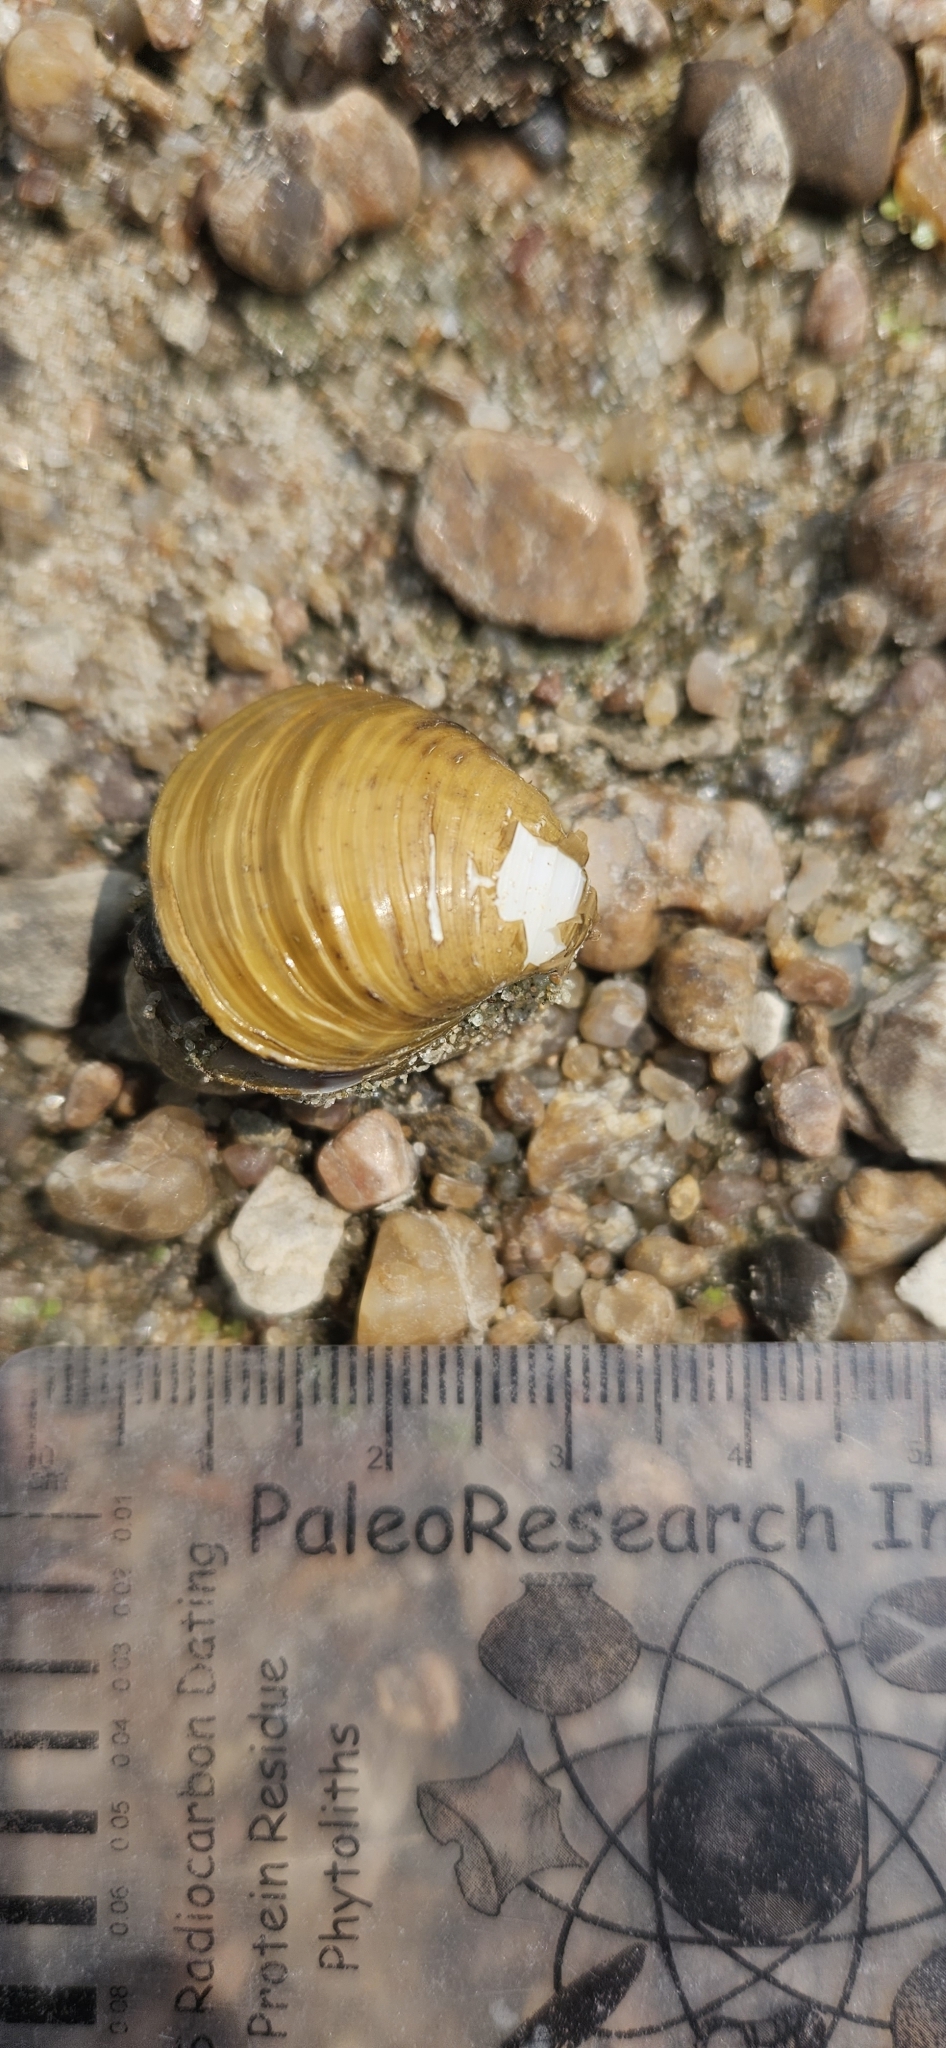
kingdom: Animalia
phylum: Mollusca
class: Bivalvia
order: Venerida
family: Cyrenidae
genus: Corbicula
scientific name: Corbicula fluminea
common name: Asian clam
